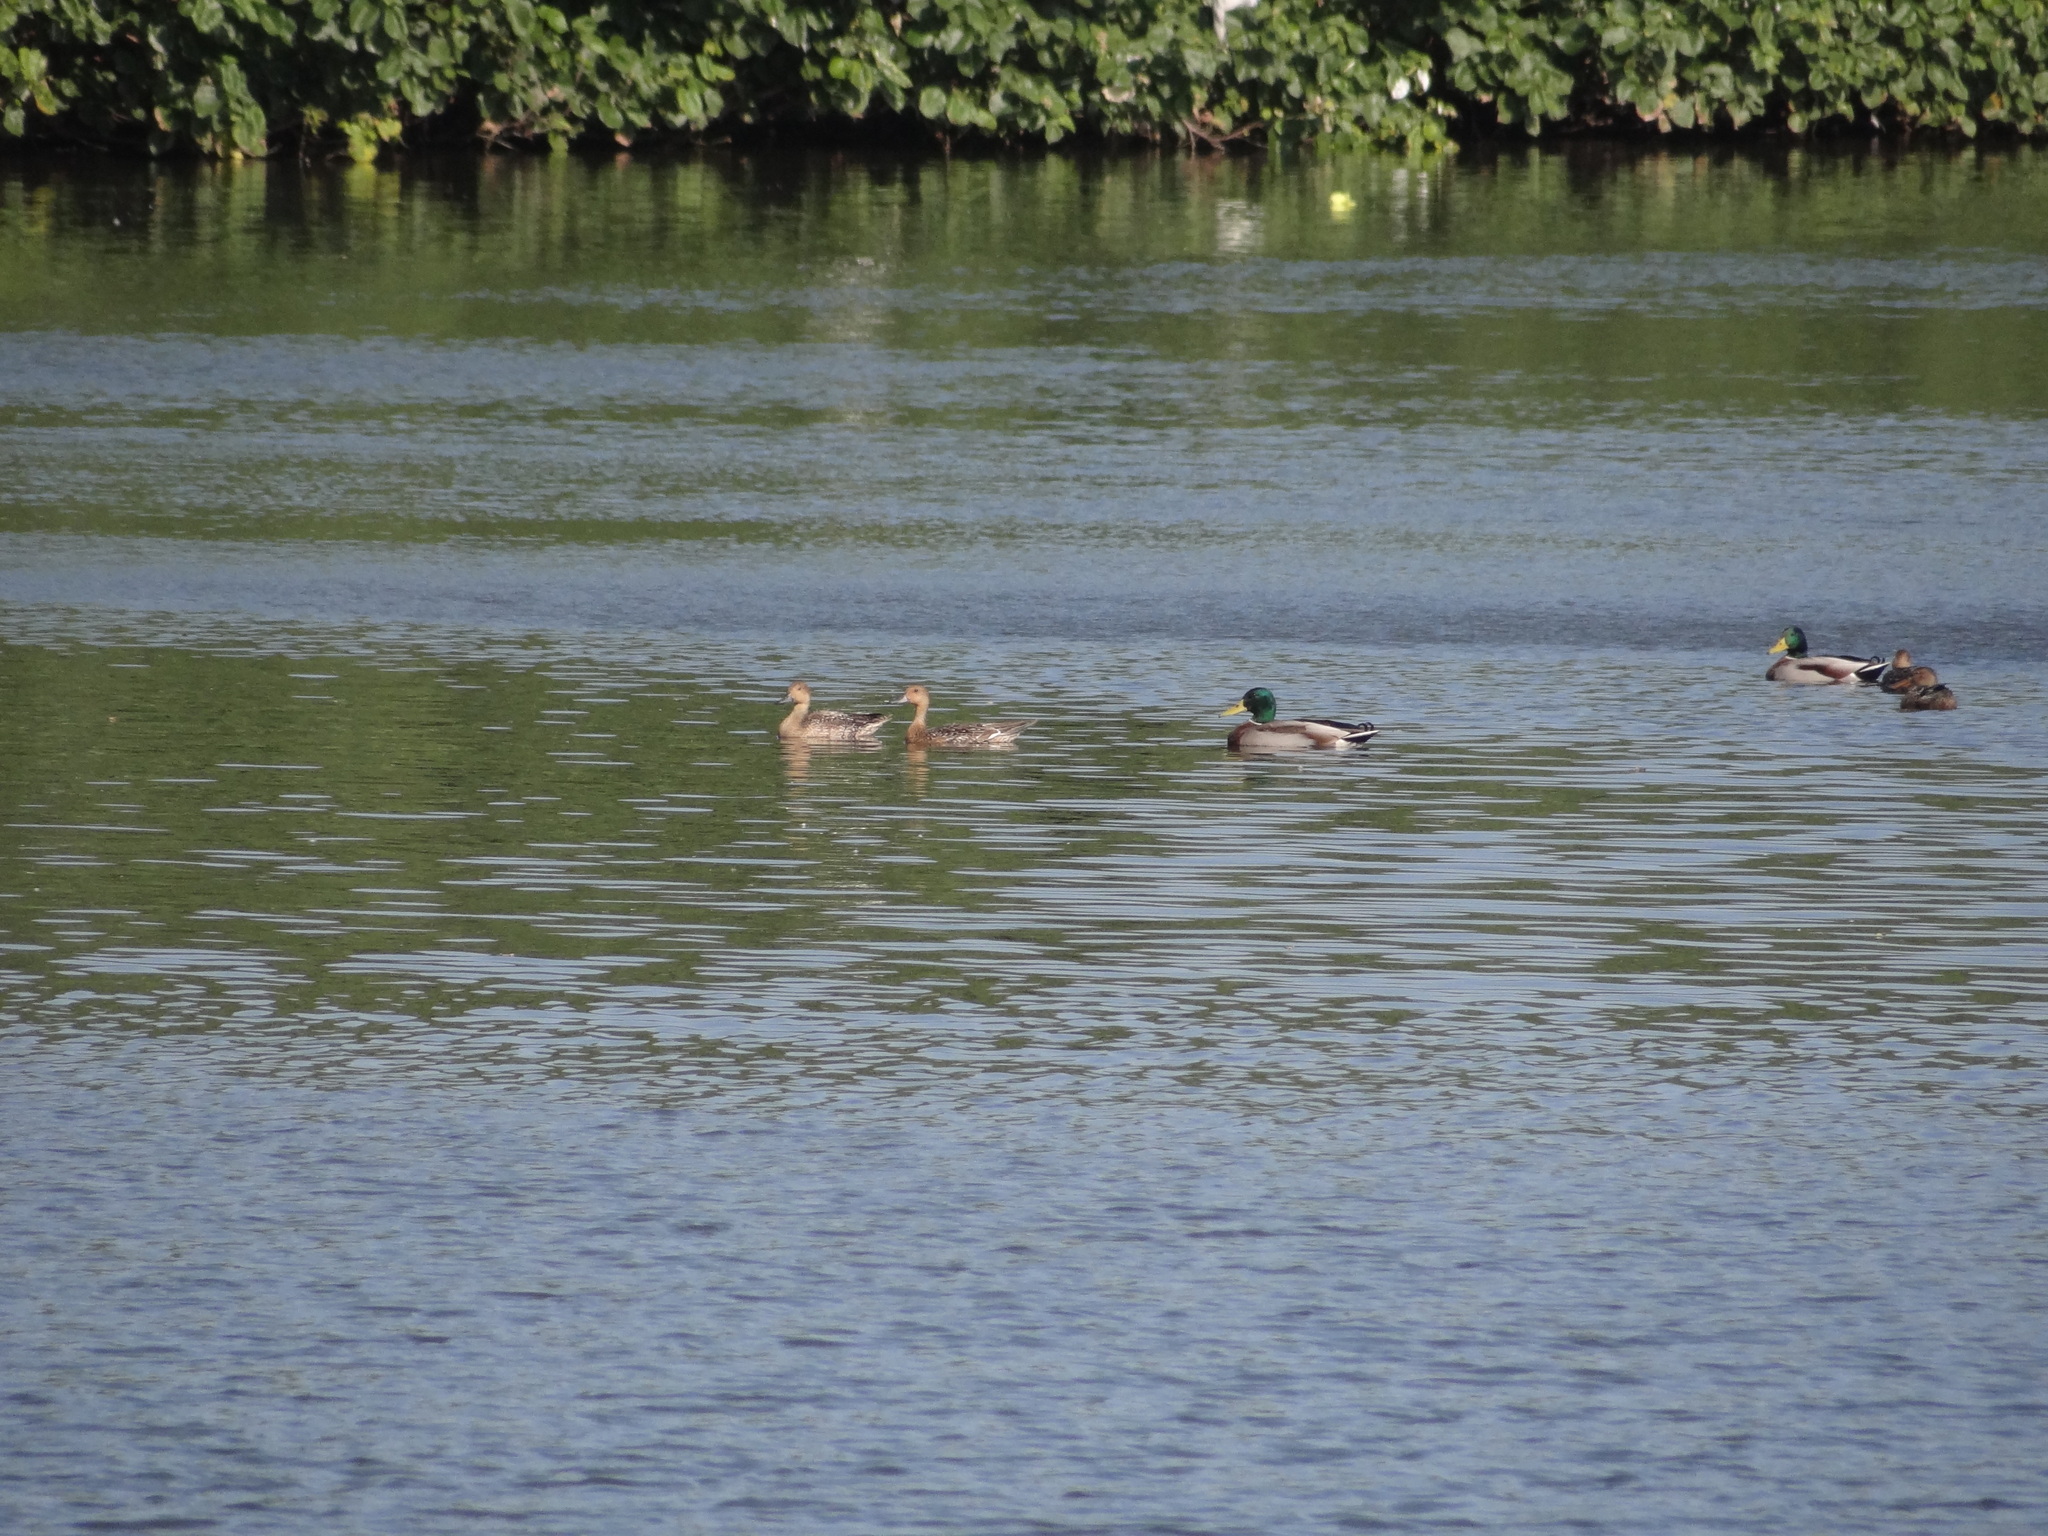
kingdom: Animalia
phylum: Chordata
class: Aves
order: Anseriformes
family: Anatidae
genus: Anas
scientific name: Anas platyrhynchos
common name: Mallard
